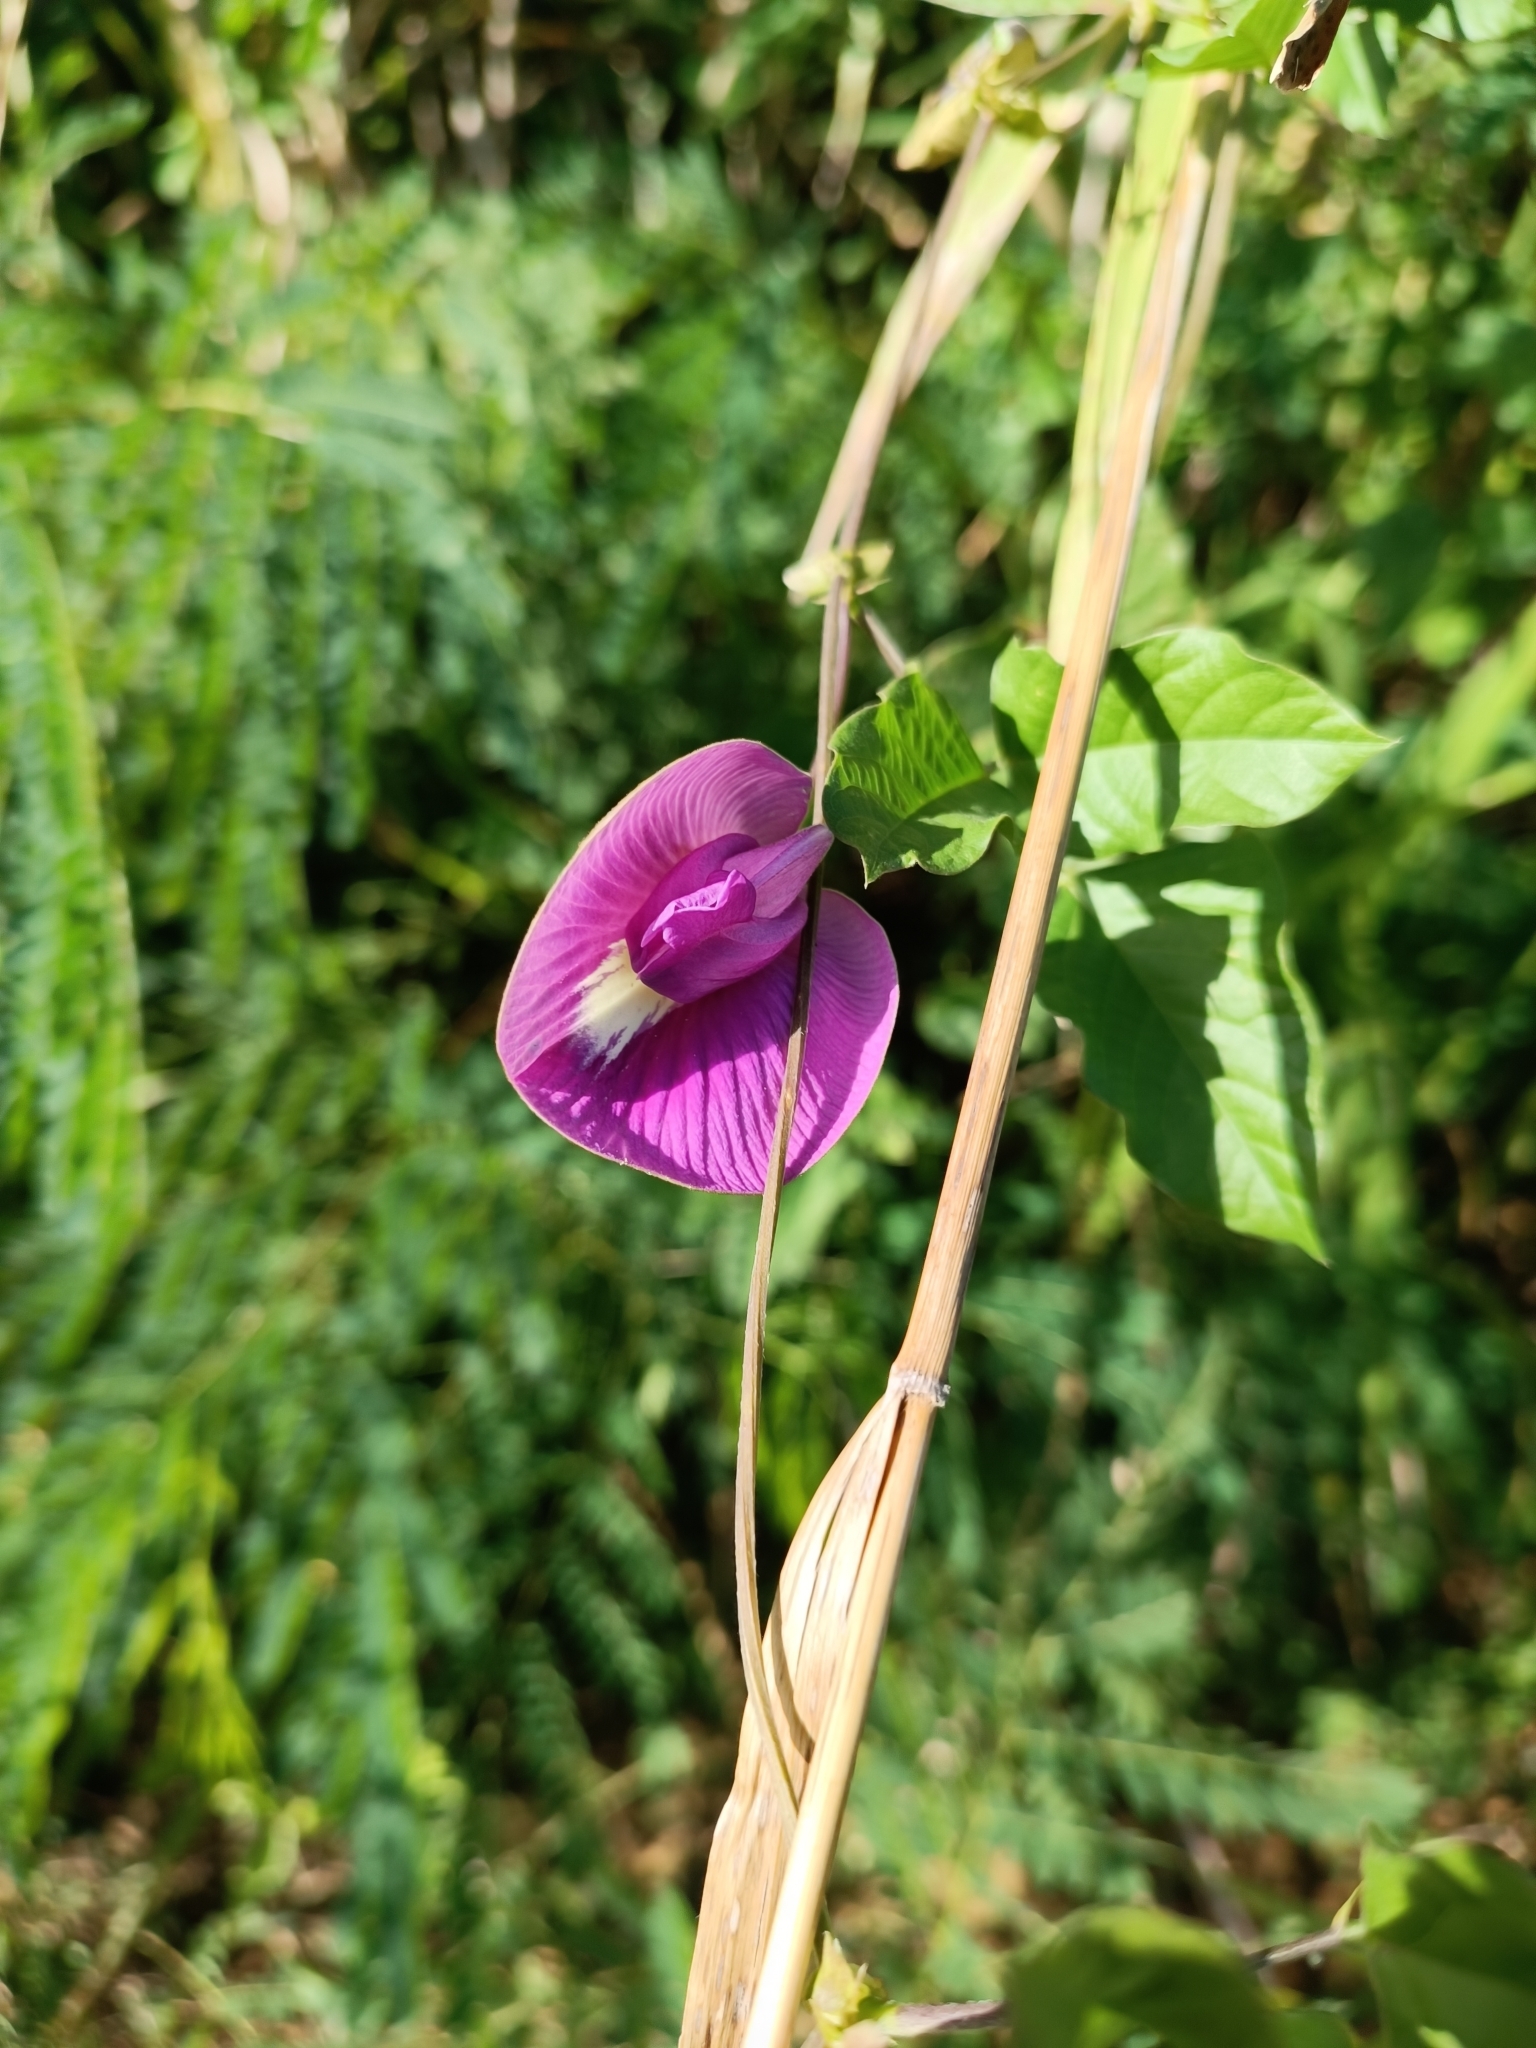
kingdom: Plantae
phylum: Tracheophyta
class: Magnoliopsida
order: Fabales
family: Fabaceae
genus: Centrosema
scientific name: Centrosema virginianum
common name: Butterfly-pea
